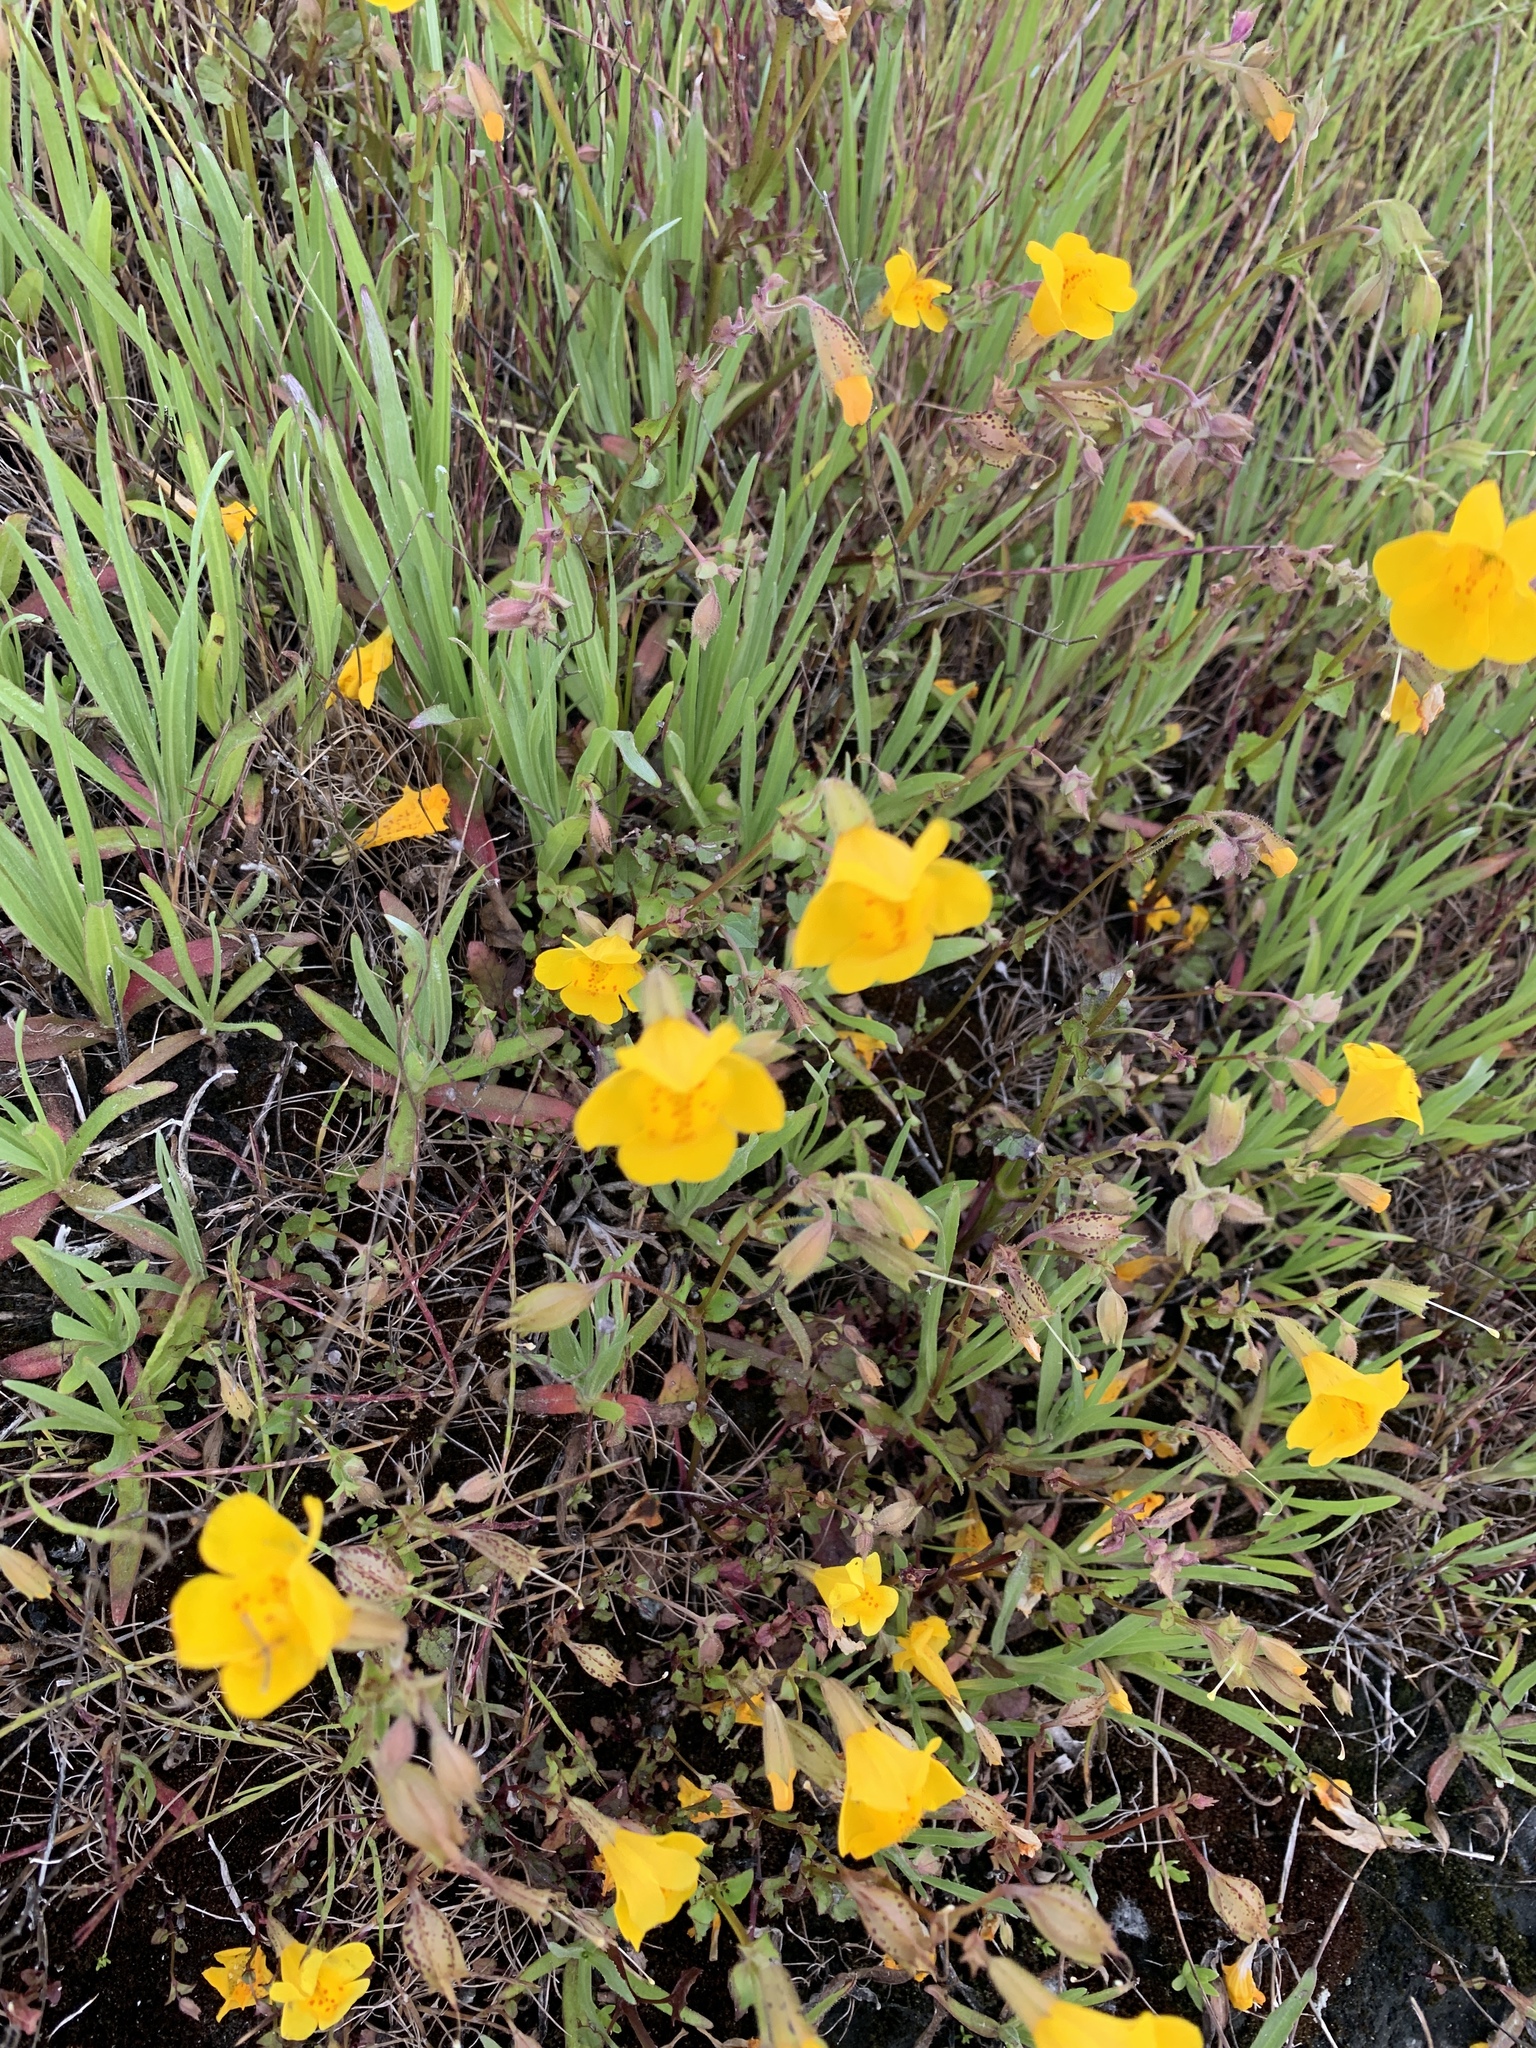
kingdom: Plantae
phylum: Tracheophyta
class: Magnoliopsida
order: Lamiales
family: Phrymaceae
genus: Erythranthe
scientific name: Erythranthe guttata
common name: Monkeyflower
